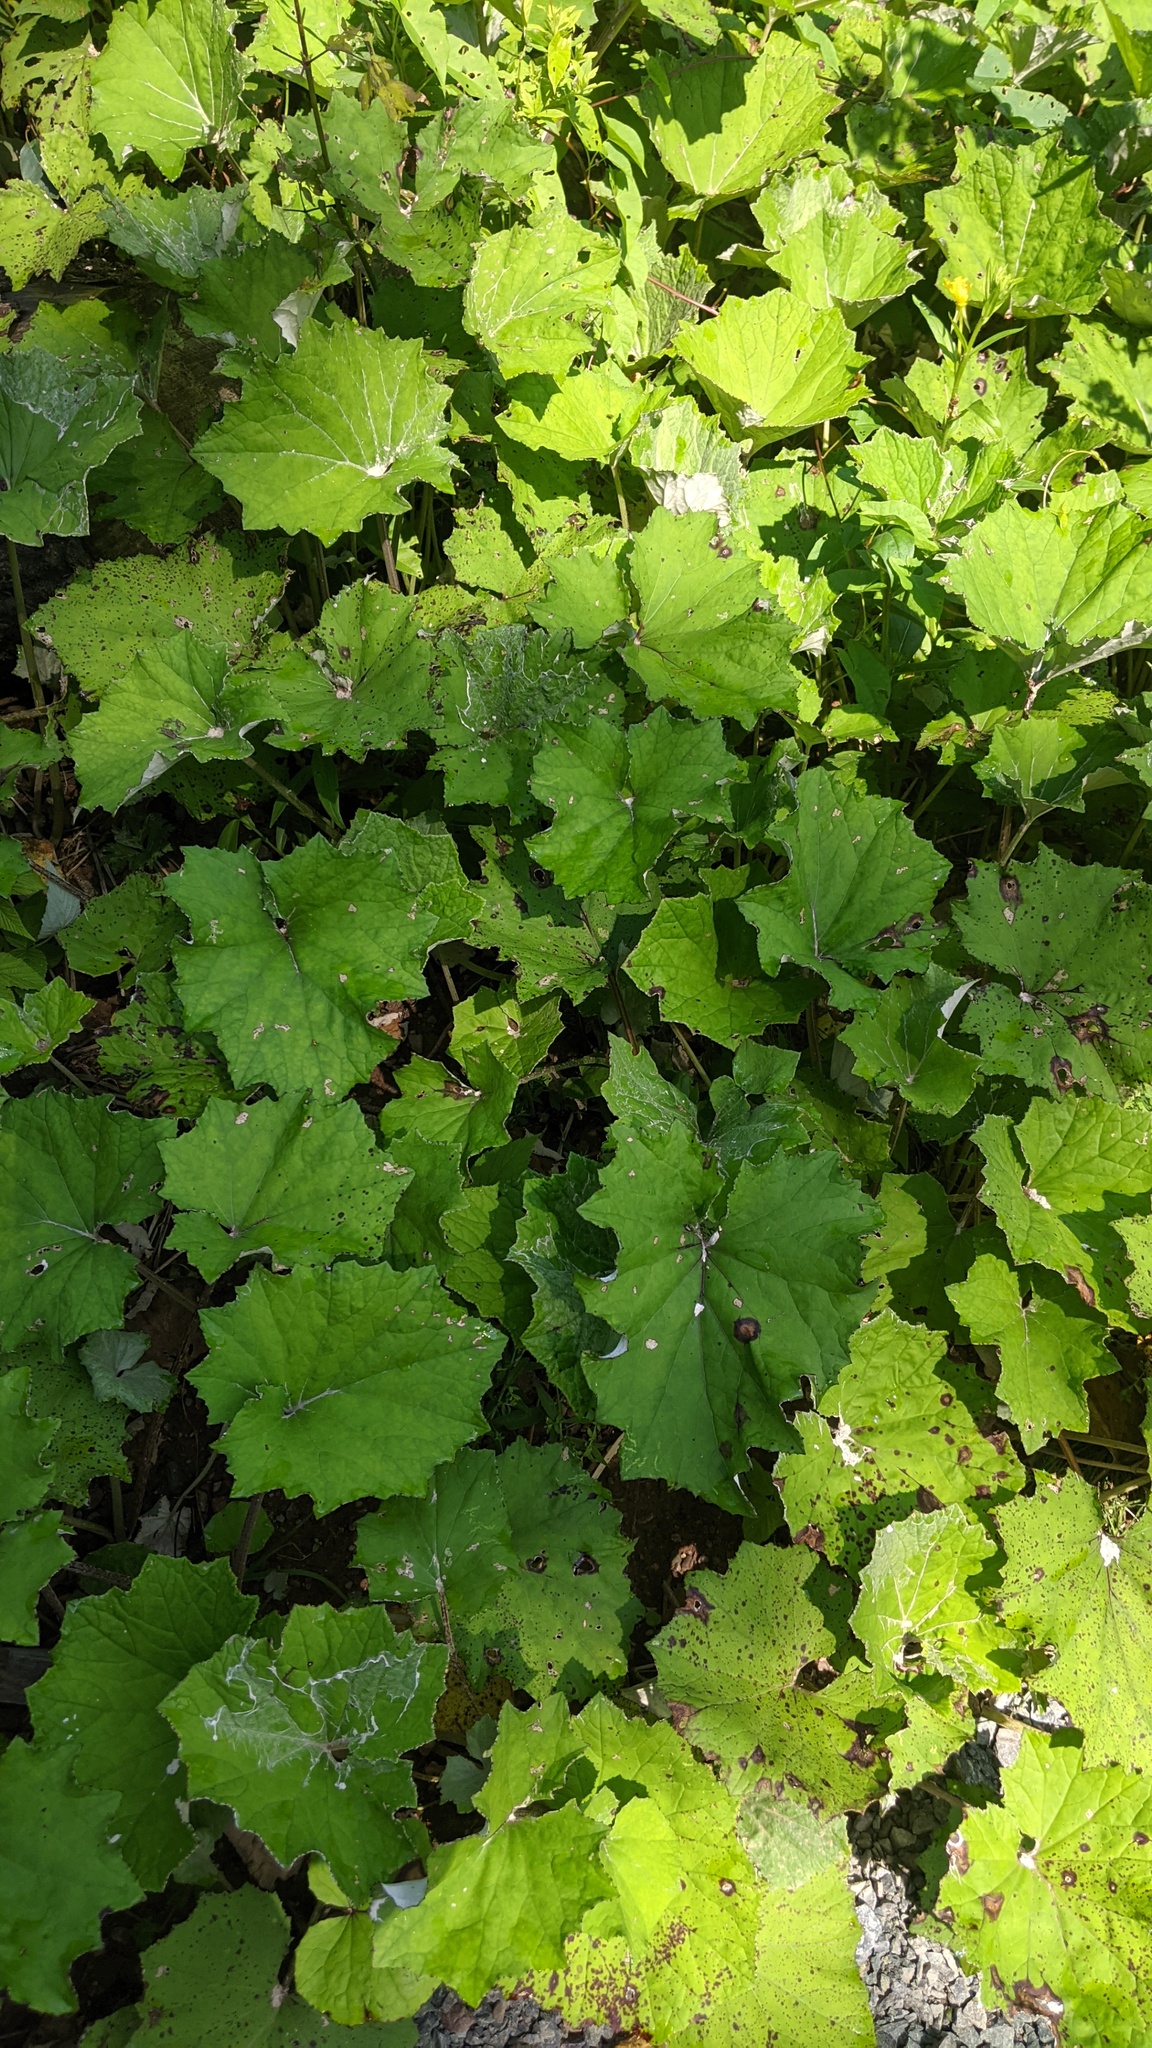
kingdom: Plantae
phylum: Tracheophyta
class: Magnoliopsida
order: Asterales
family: Asteraceae
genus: Tussilago
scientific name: Tussilago farfara
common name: Coltsfoot
